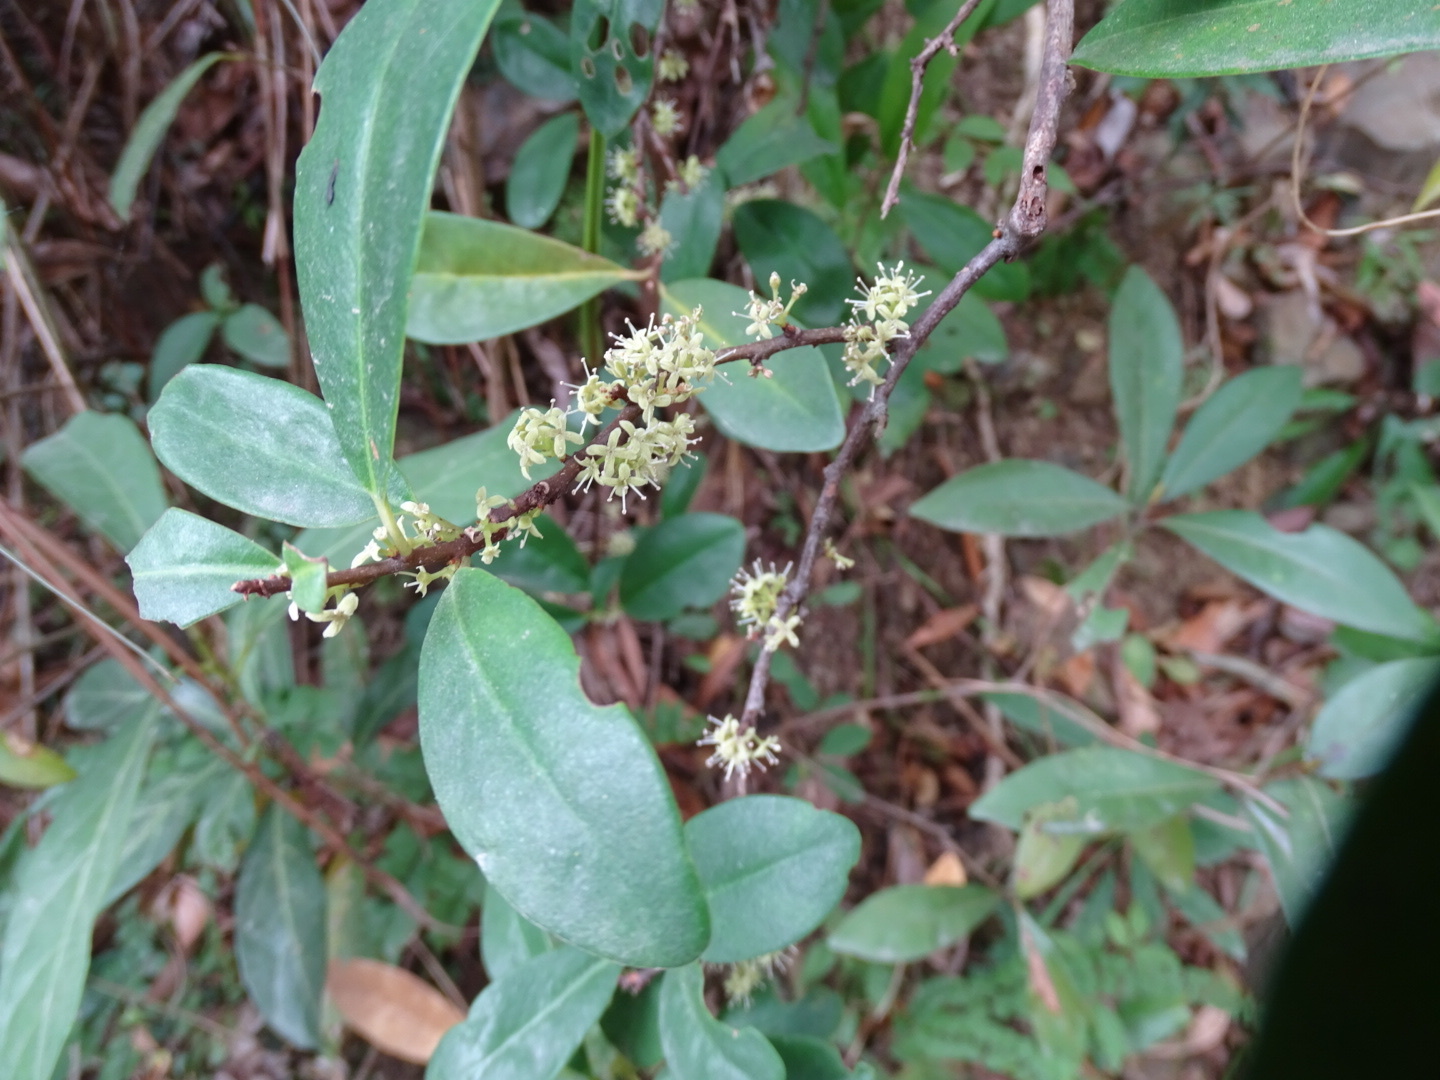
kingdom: Plantae
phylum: Tracheophyta
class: Magnoliopsida
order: Ericales
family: Primulaceae
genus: Embelia
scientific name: Embelia laeta
